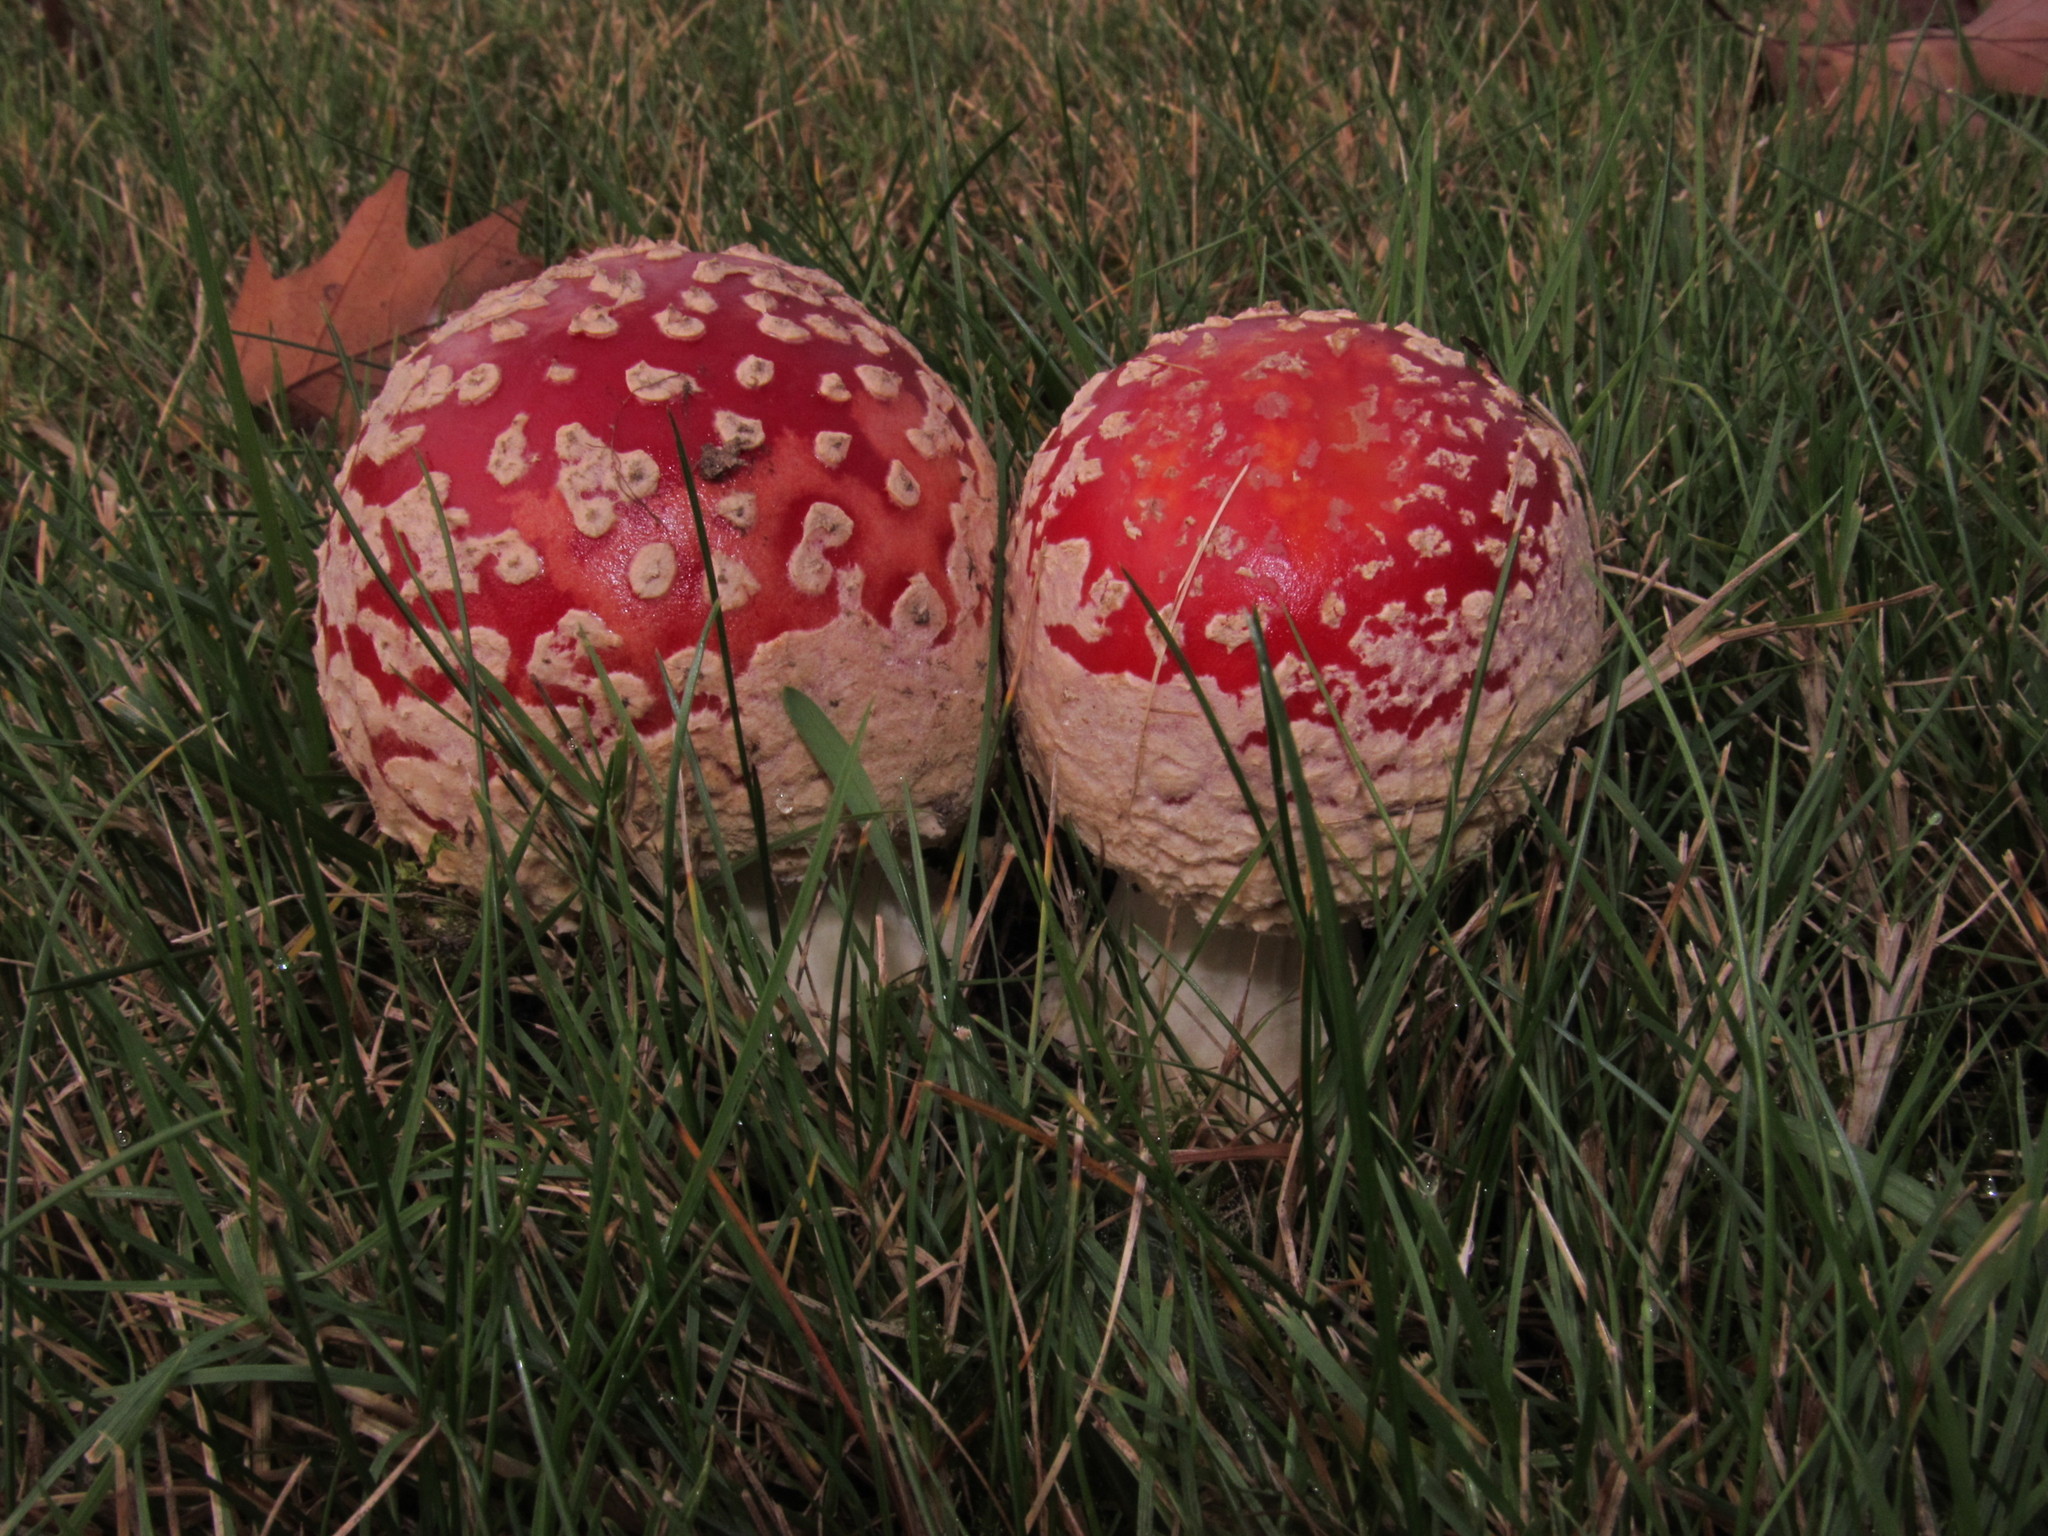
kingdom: Fungi
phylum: Basidiomycota
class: Agaricomycetes
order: Agaricales
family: Amanitaceae
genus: Amanita
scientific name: Amanita muscaria
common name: Fly agaric
